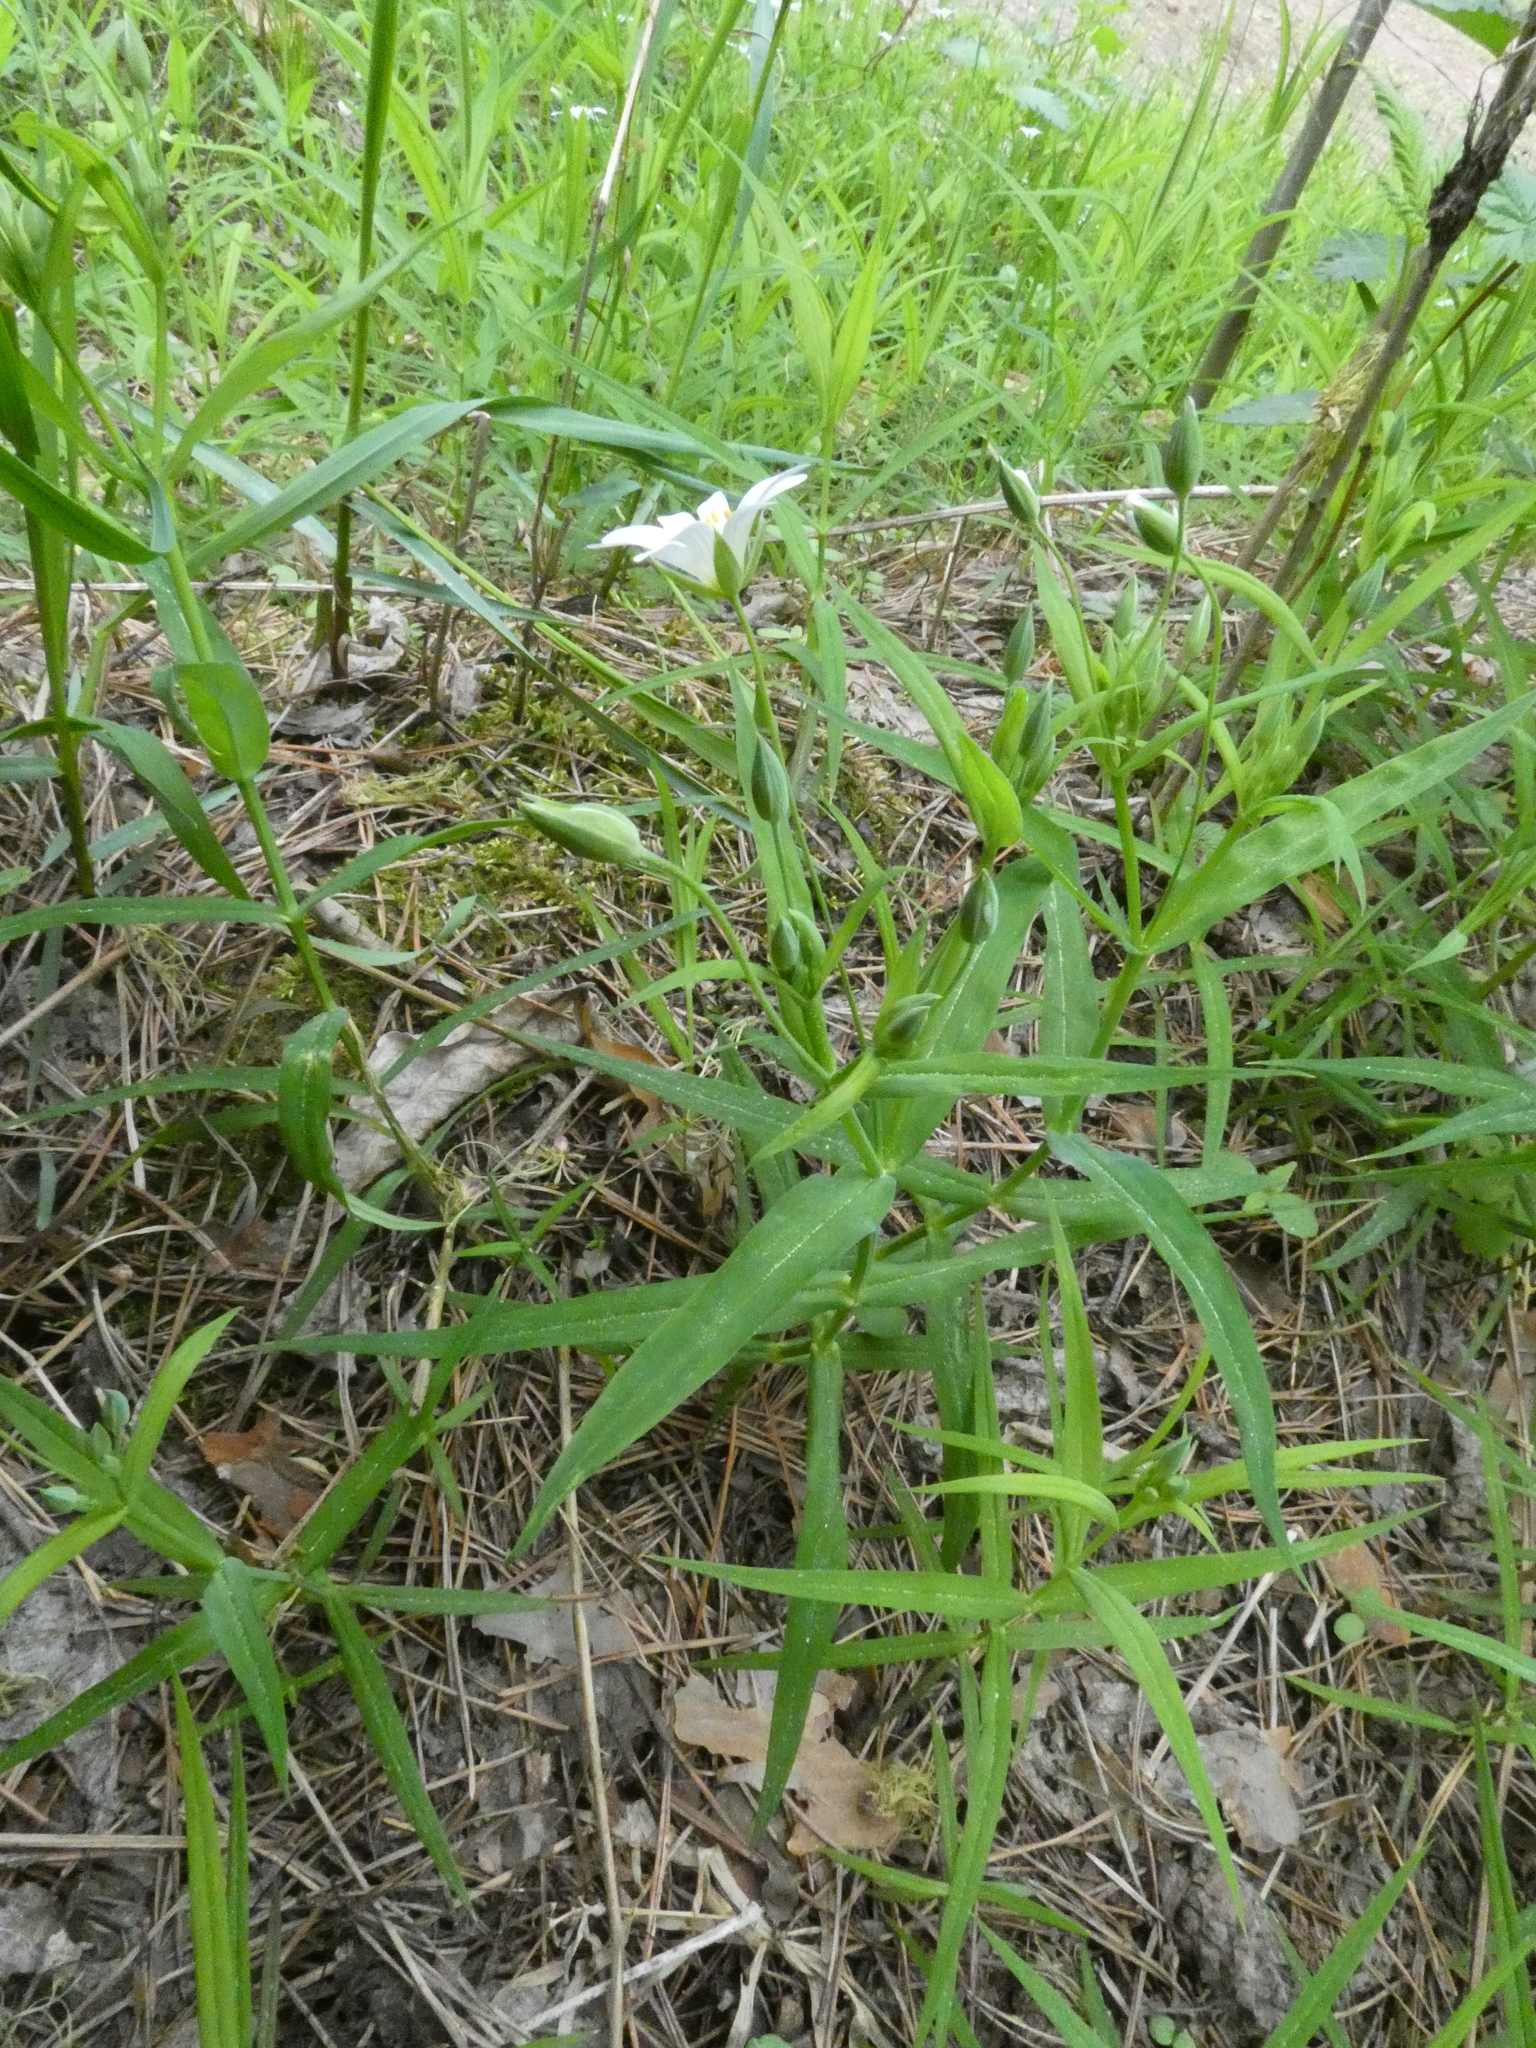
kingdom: Plantae
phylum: Tracheophyta
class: Magnoliopsida
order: Caryophyllales
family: Caryophyllaceae
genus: Rabelera
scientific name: Rabelera holostea
